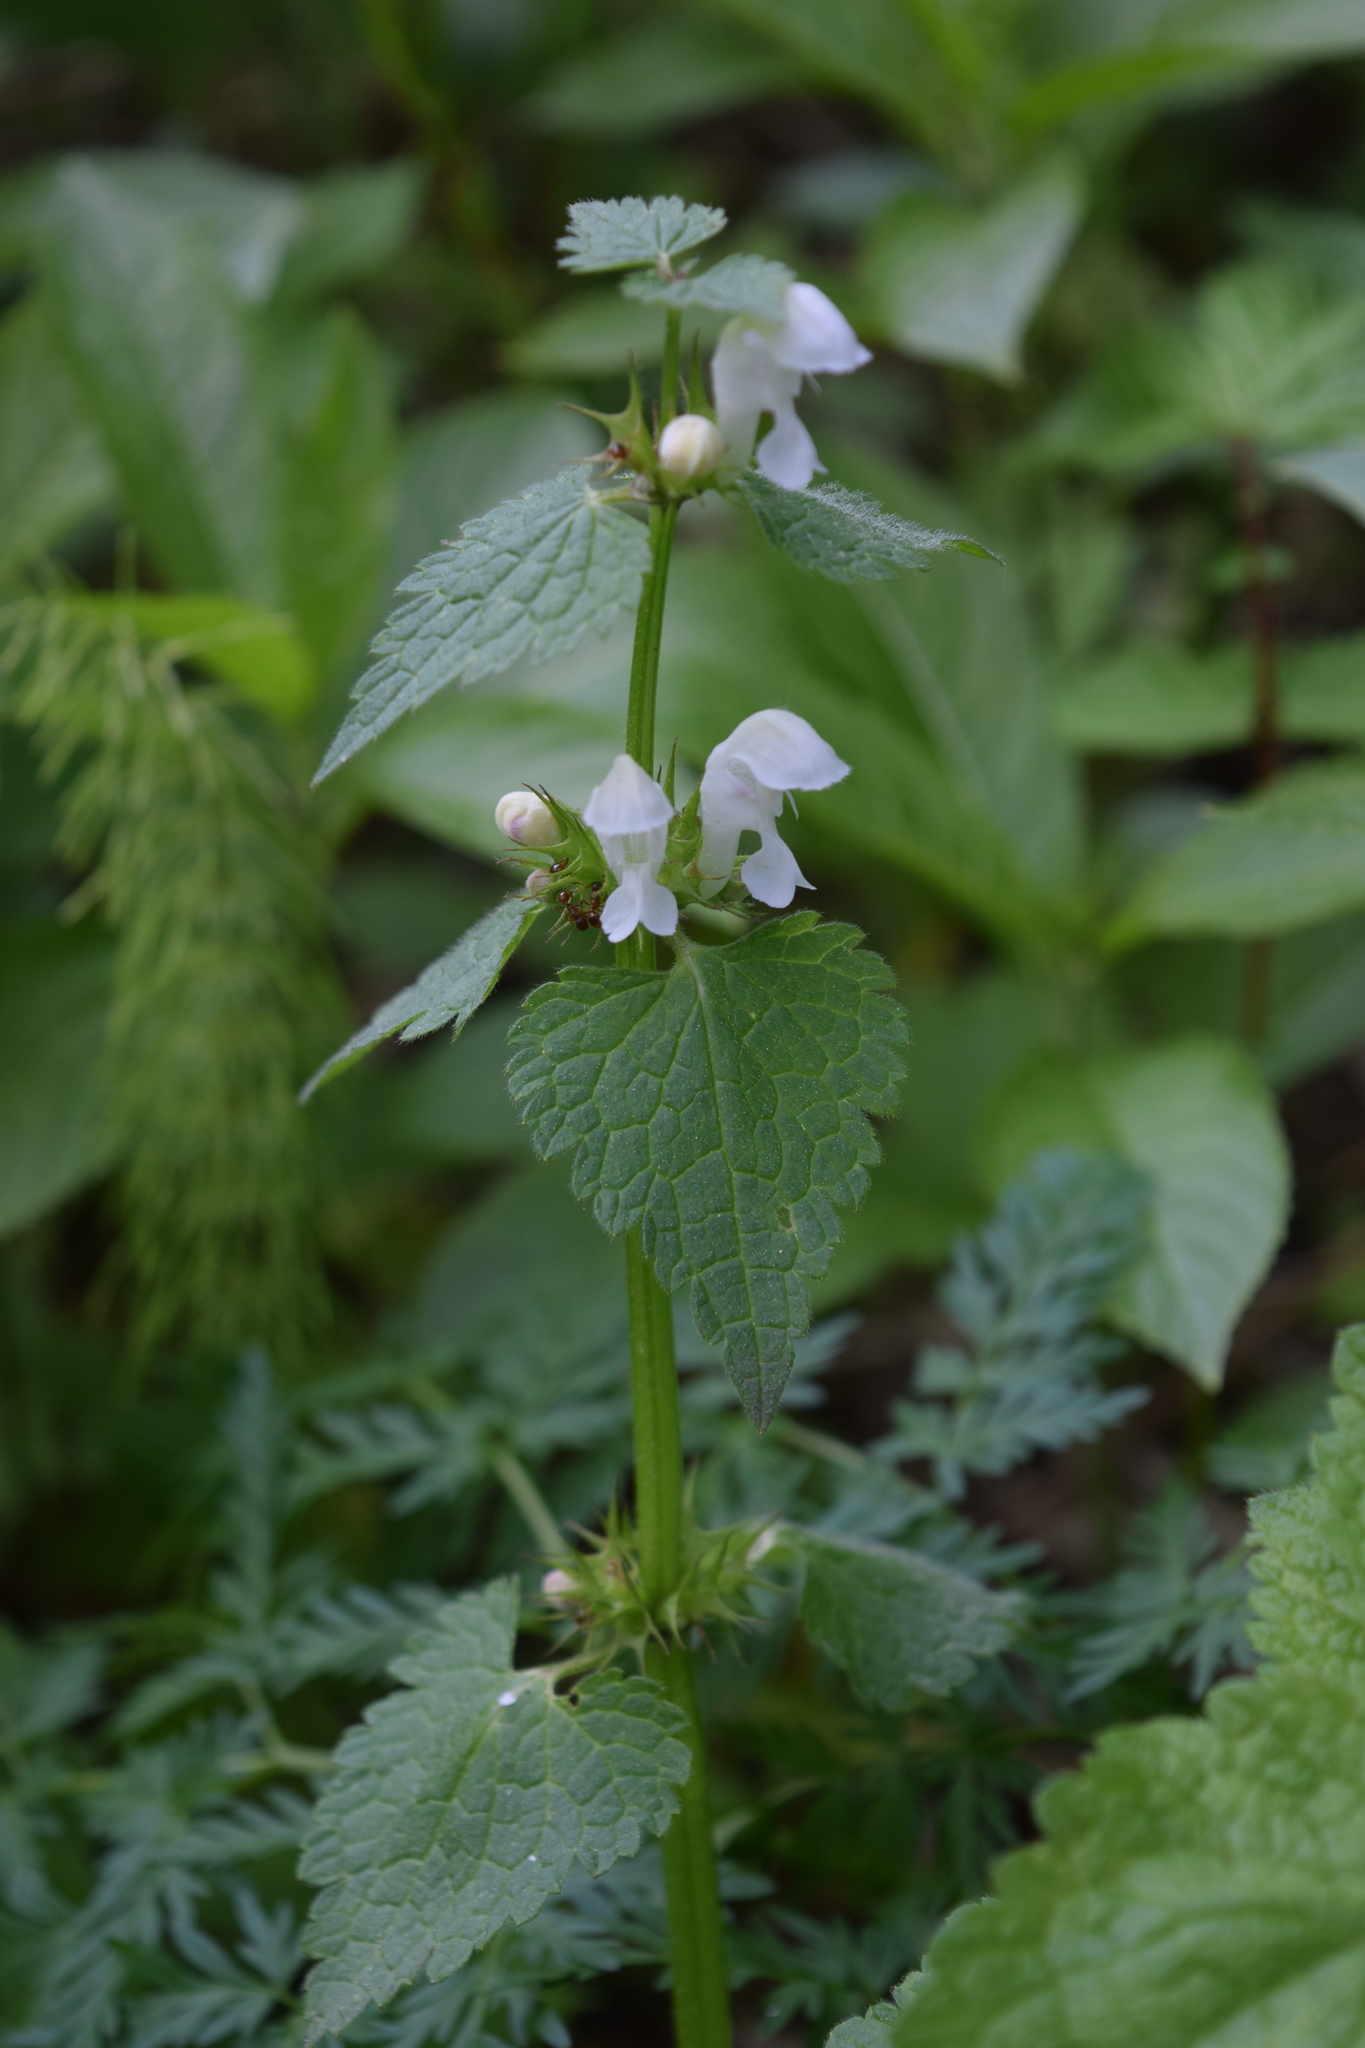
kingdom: Plantae
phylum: Tracheophyta
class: Magnoliopsida
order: Lamiales
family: Lamiaceae
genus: Lamium
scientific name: Lamium maculatum
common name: Spotted dead-nettle
